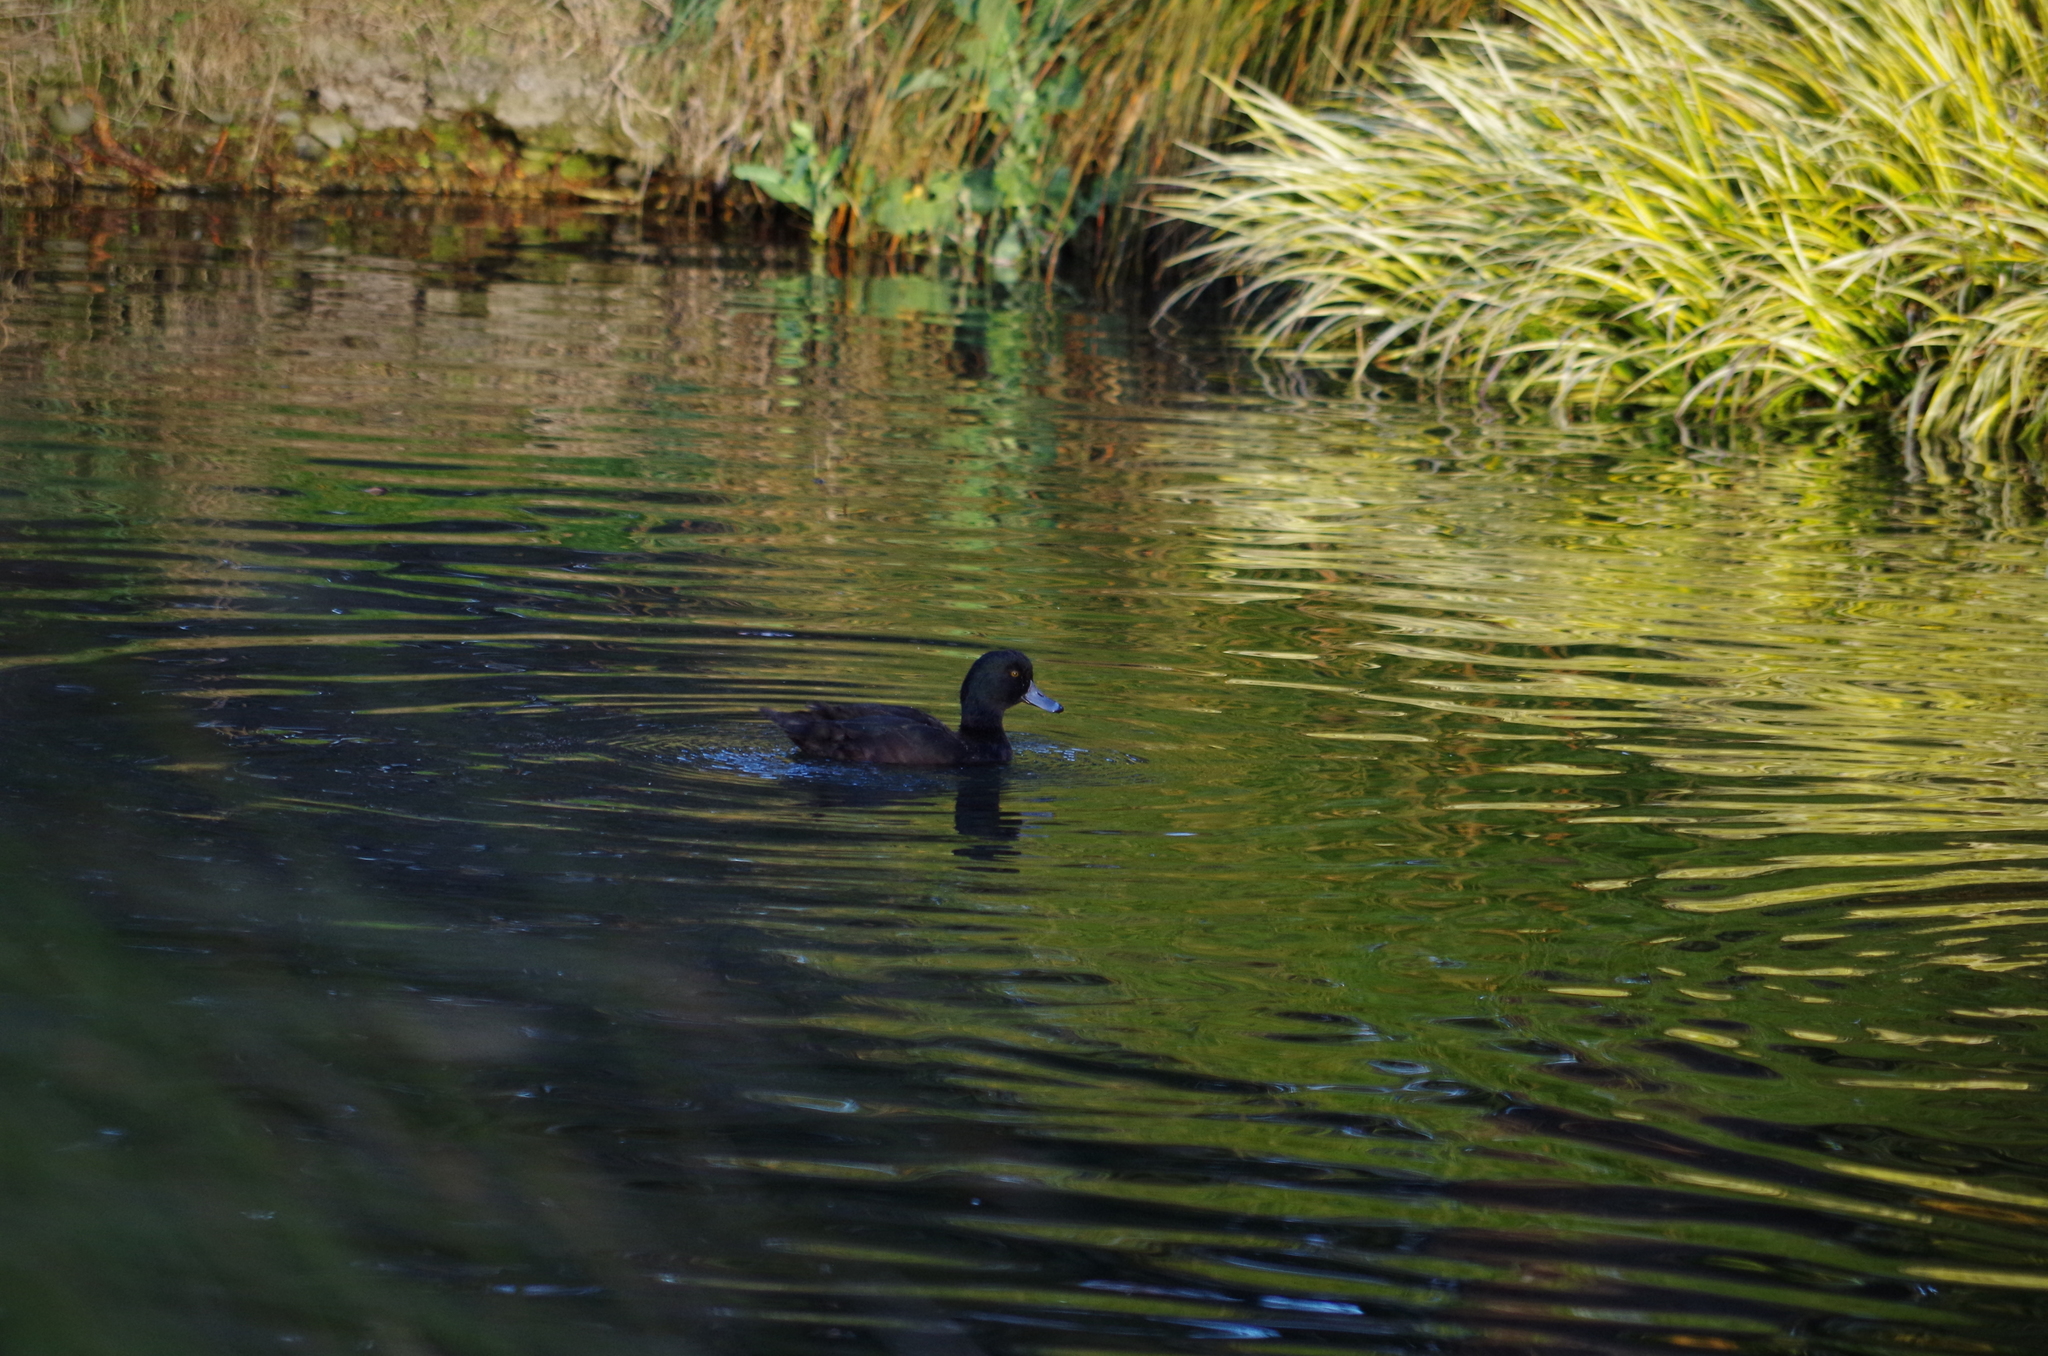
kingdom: Animalia
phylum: Chordata
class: Aves
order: Anseriformes
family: Anatidae
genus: Aythya
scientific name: Aythya novaeseelandiae
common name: New zealand scaup
